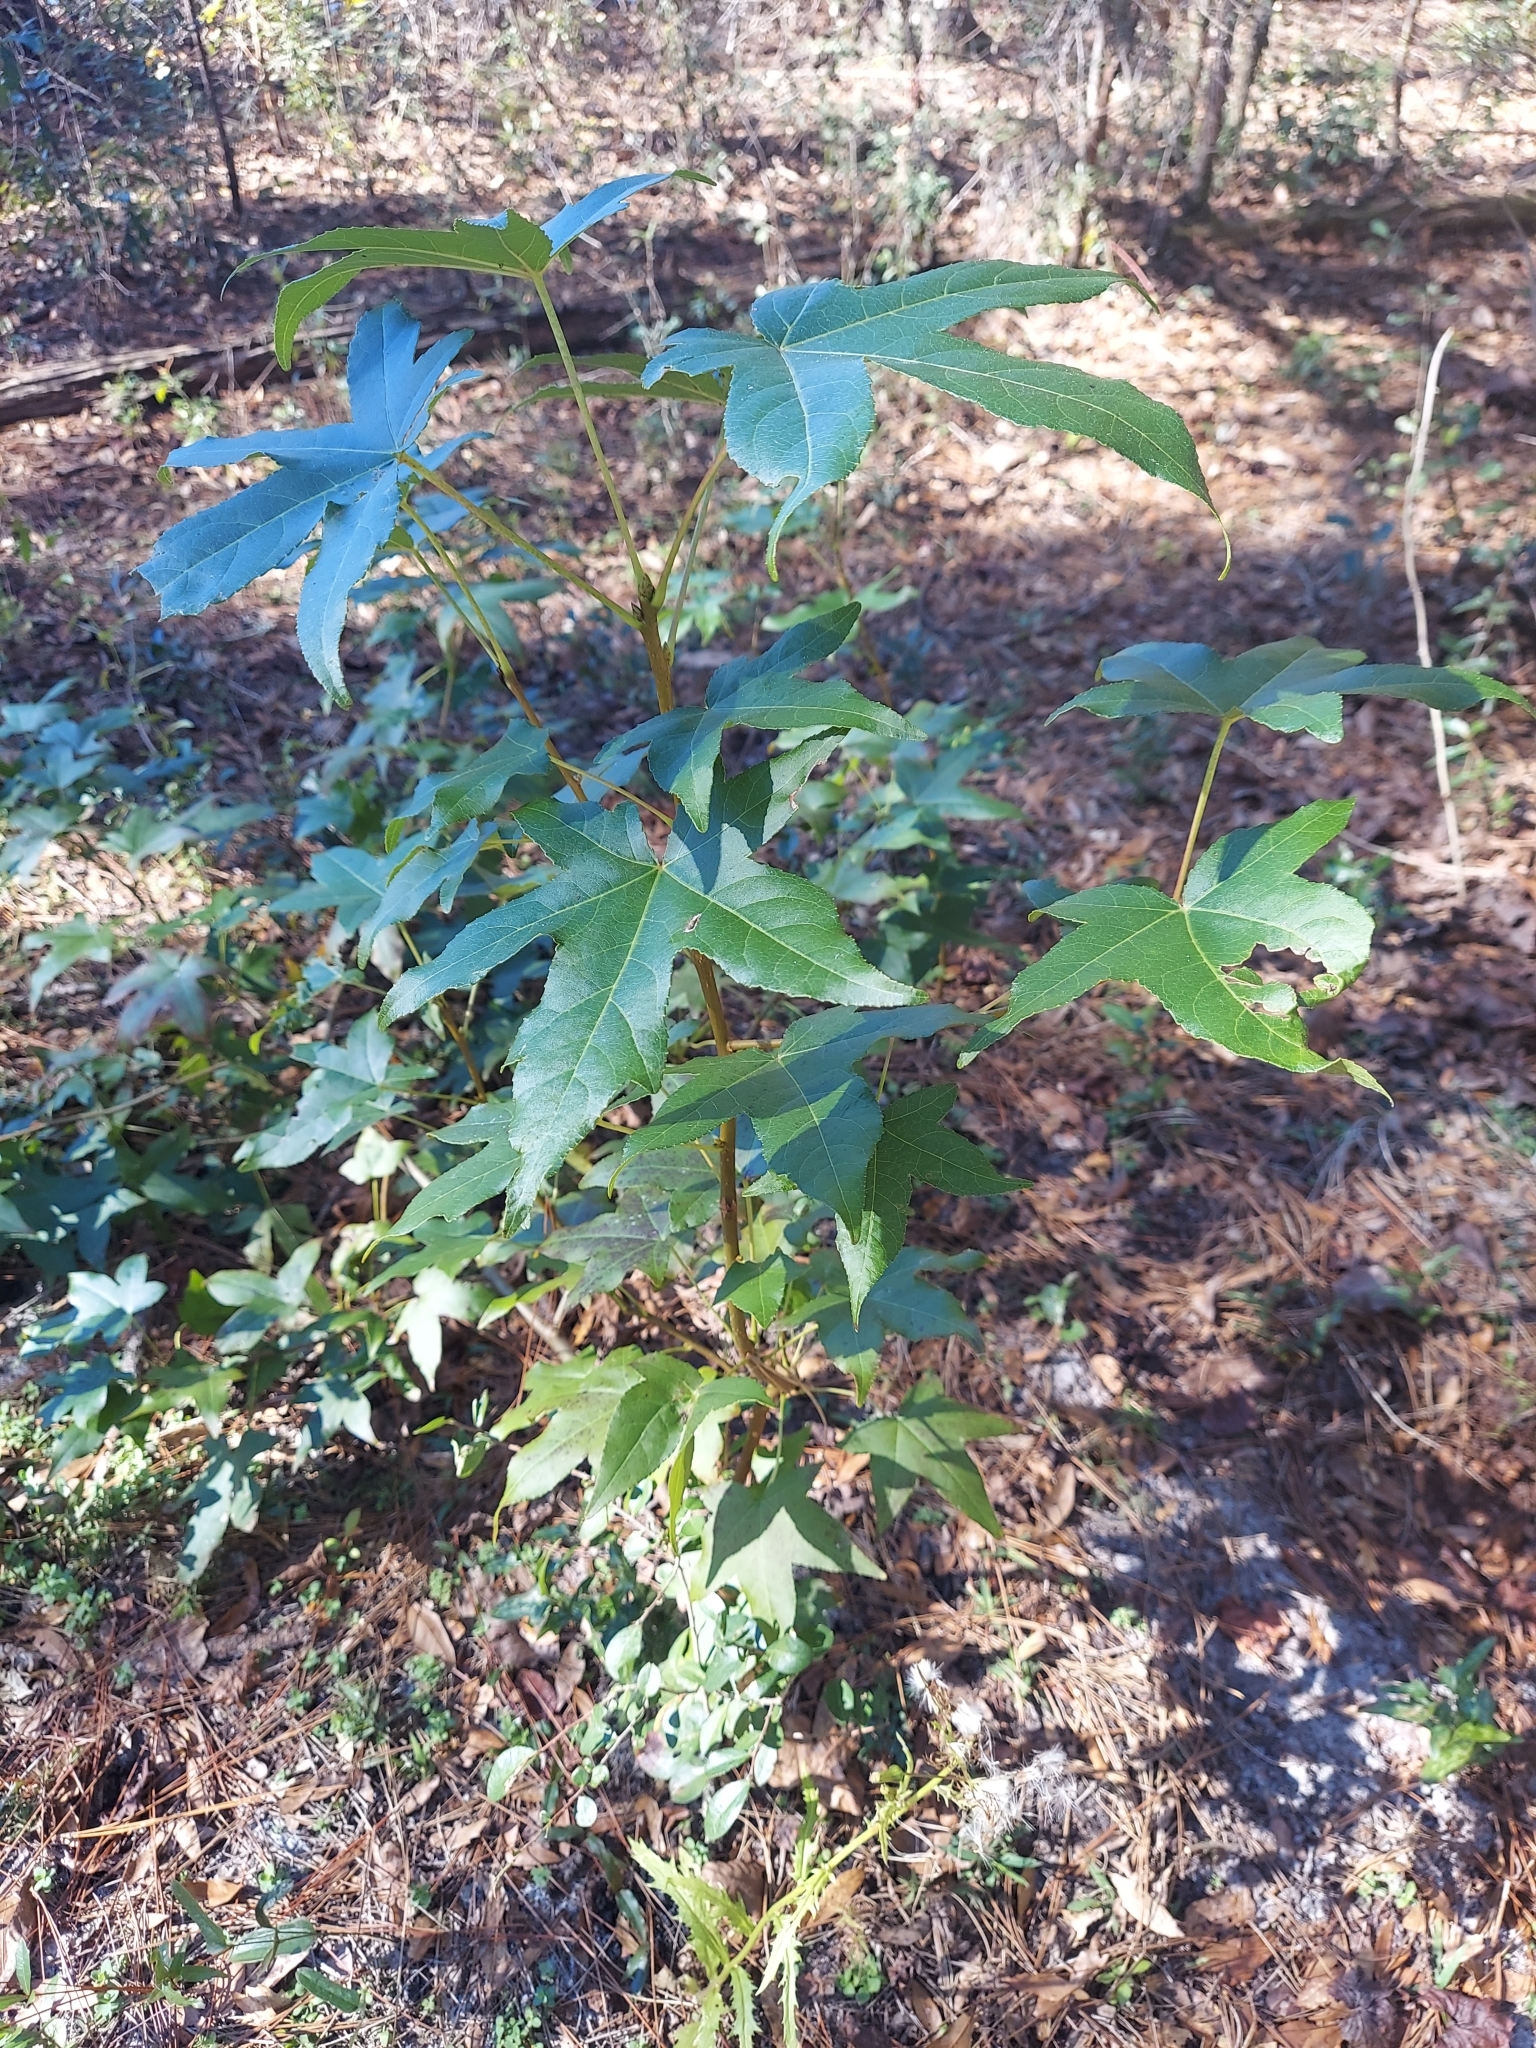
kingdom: Plantae
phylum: Tracheophyta
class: Magnoliopsida
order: Saxifragales
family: Altingiaceae
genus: Liquidambar
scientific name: Liquidambar styraciflua
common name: Sweet gum
